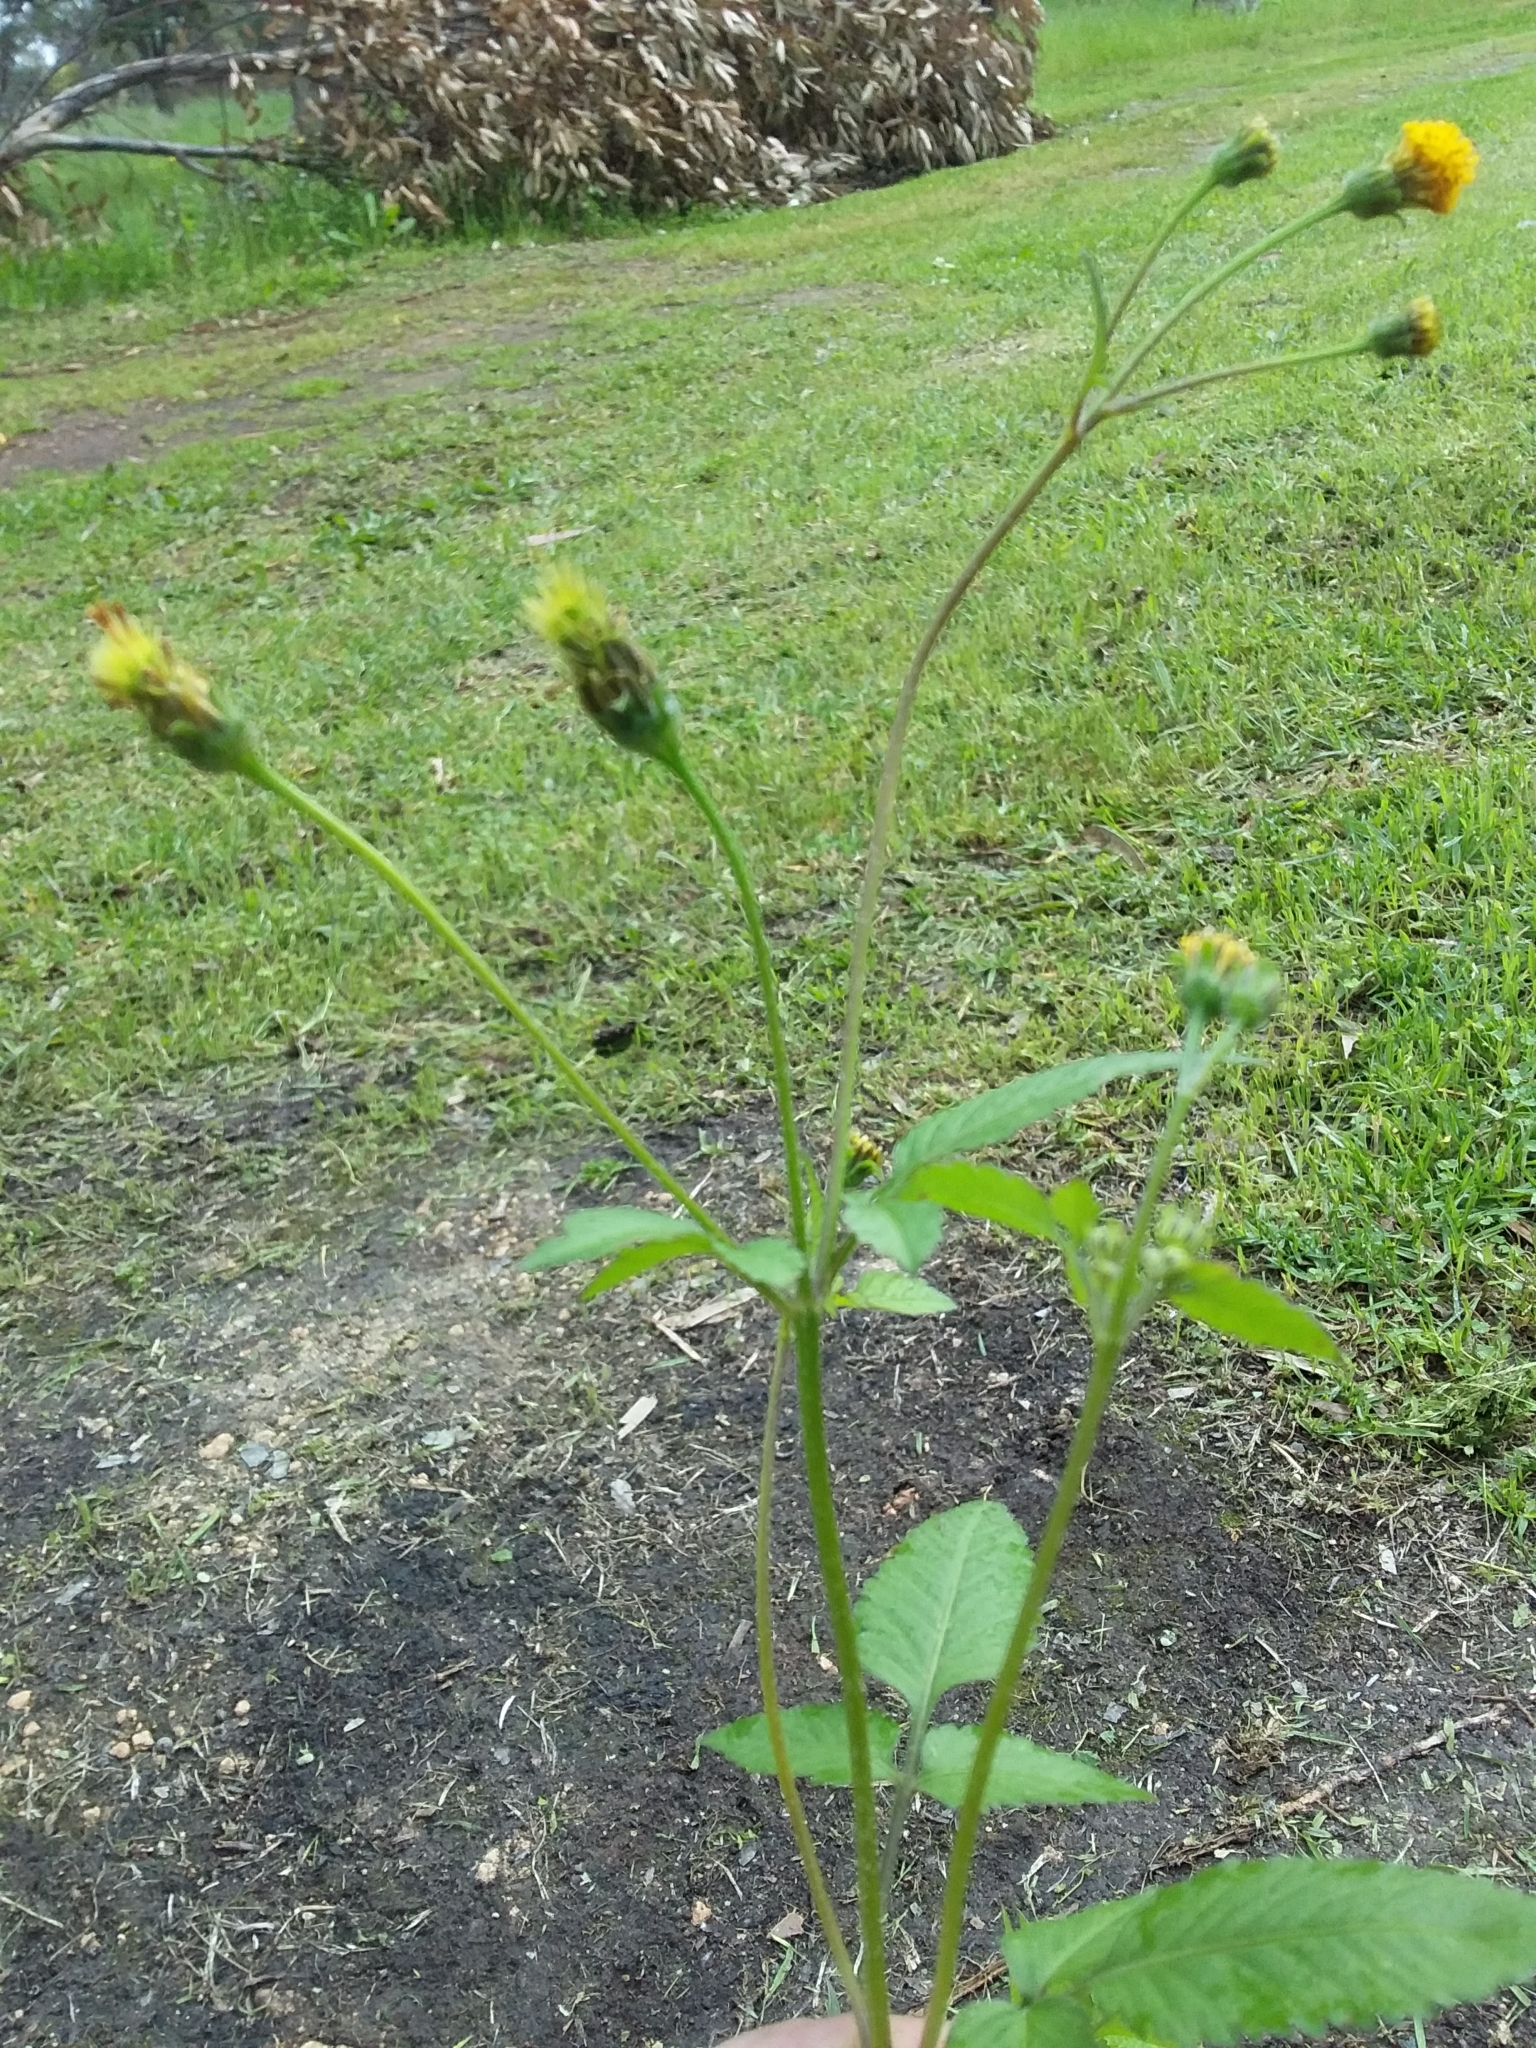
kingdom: Plantae
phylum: Tracheophyta
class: Magnoliopsida
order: Asterales
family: Asteraceae
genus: Bidens
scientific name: Bidens pilosa
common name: Black-jack
